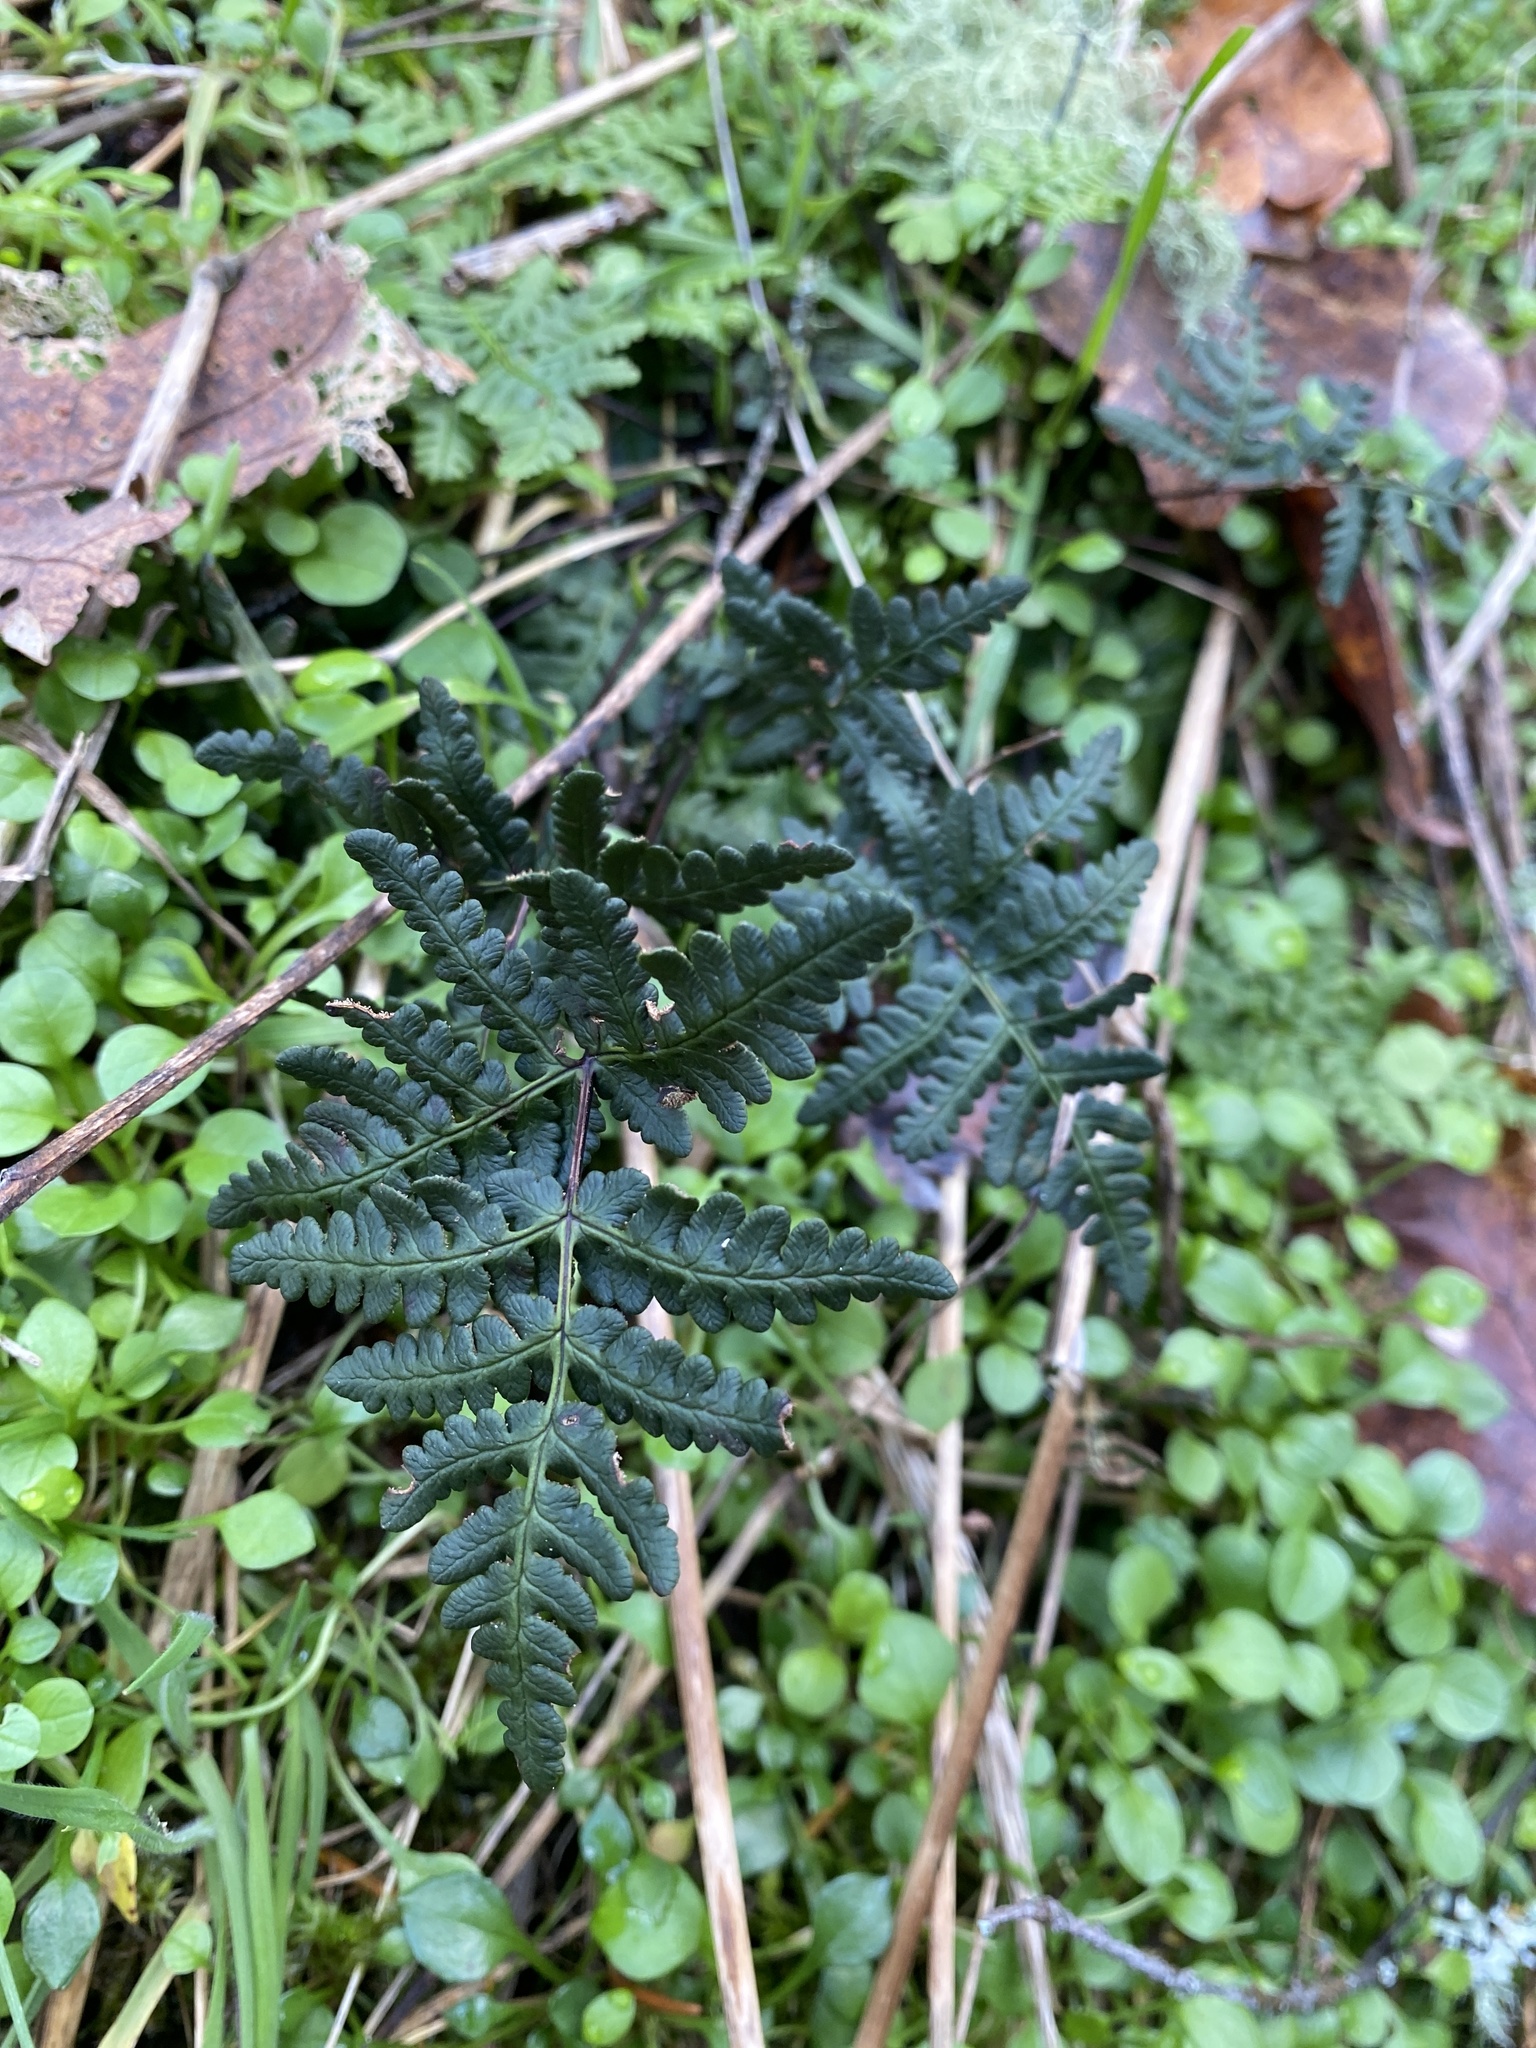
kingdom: Plantae
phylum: Tracheophyta
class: Polypodiopsida
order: Polypodiales
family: Pteridaceae
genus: Pentagramma
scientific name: Pentagramma triangularis
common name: Gold fern
